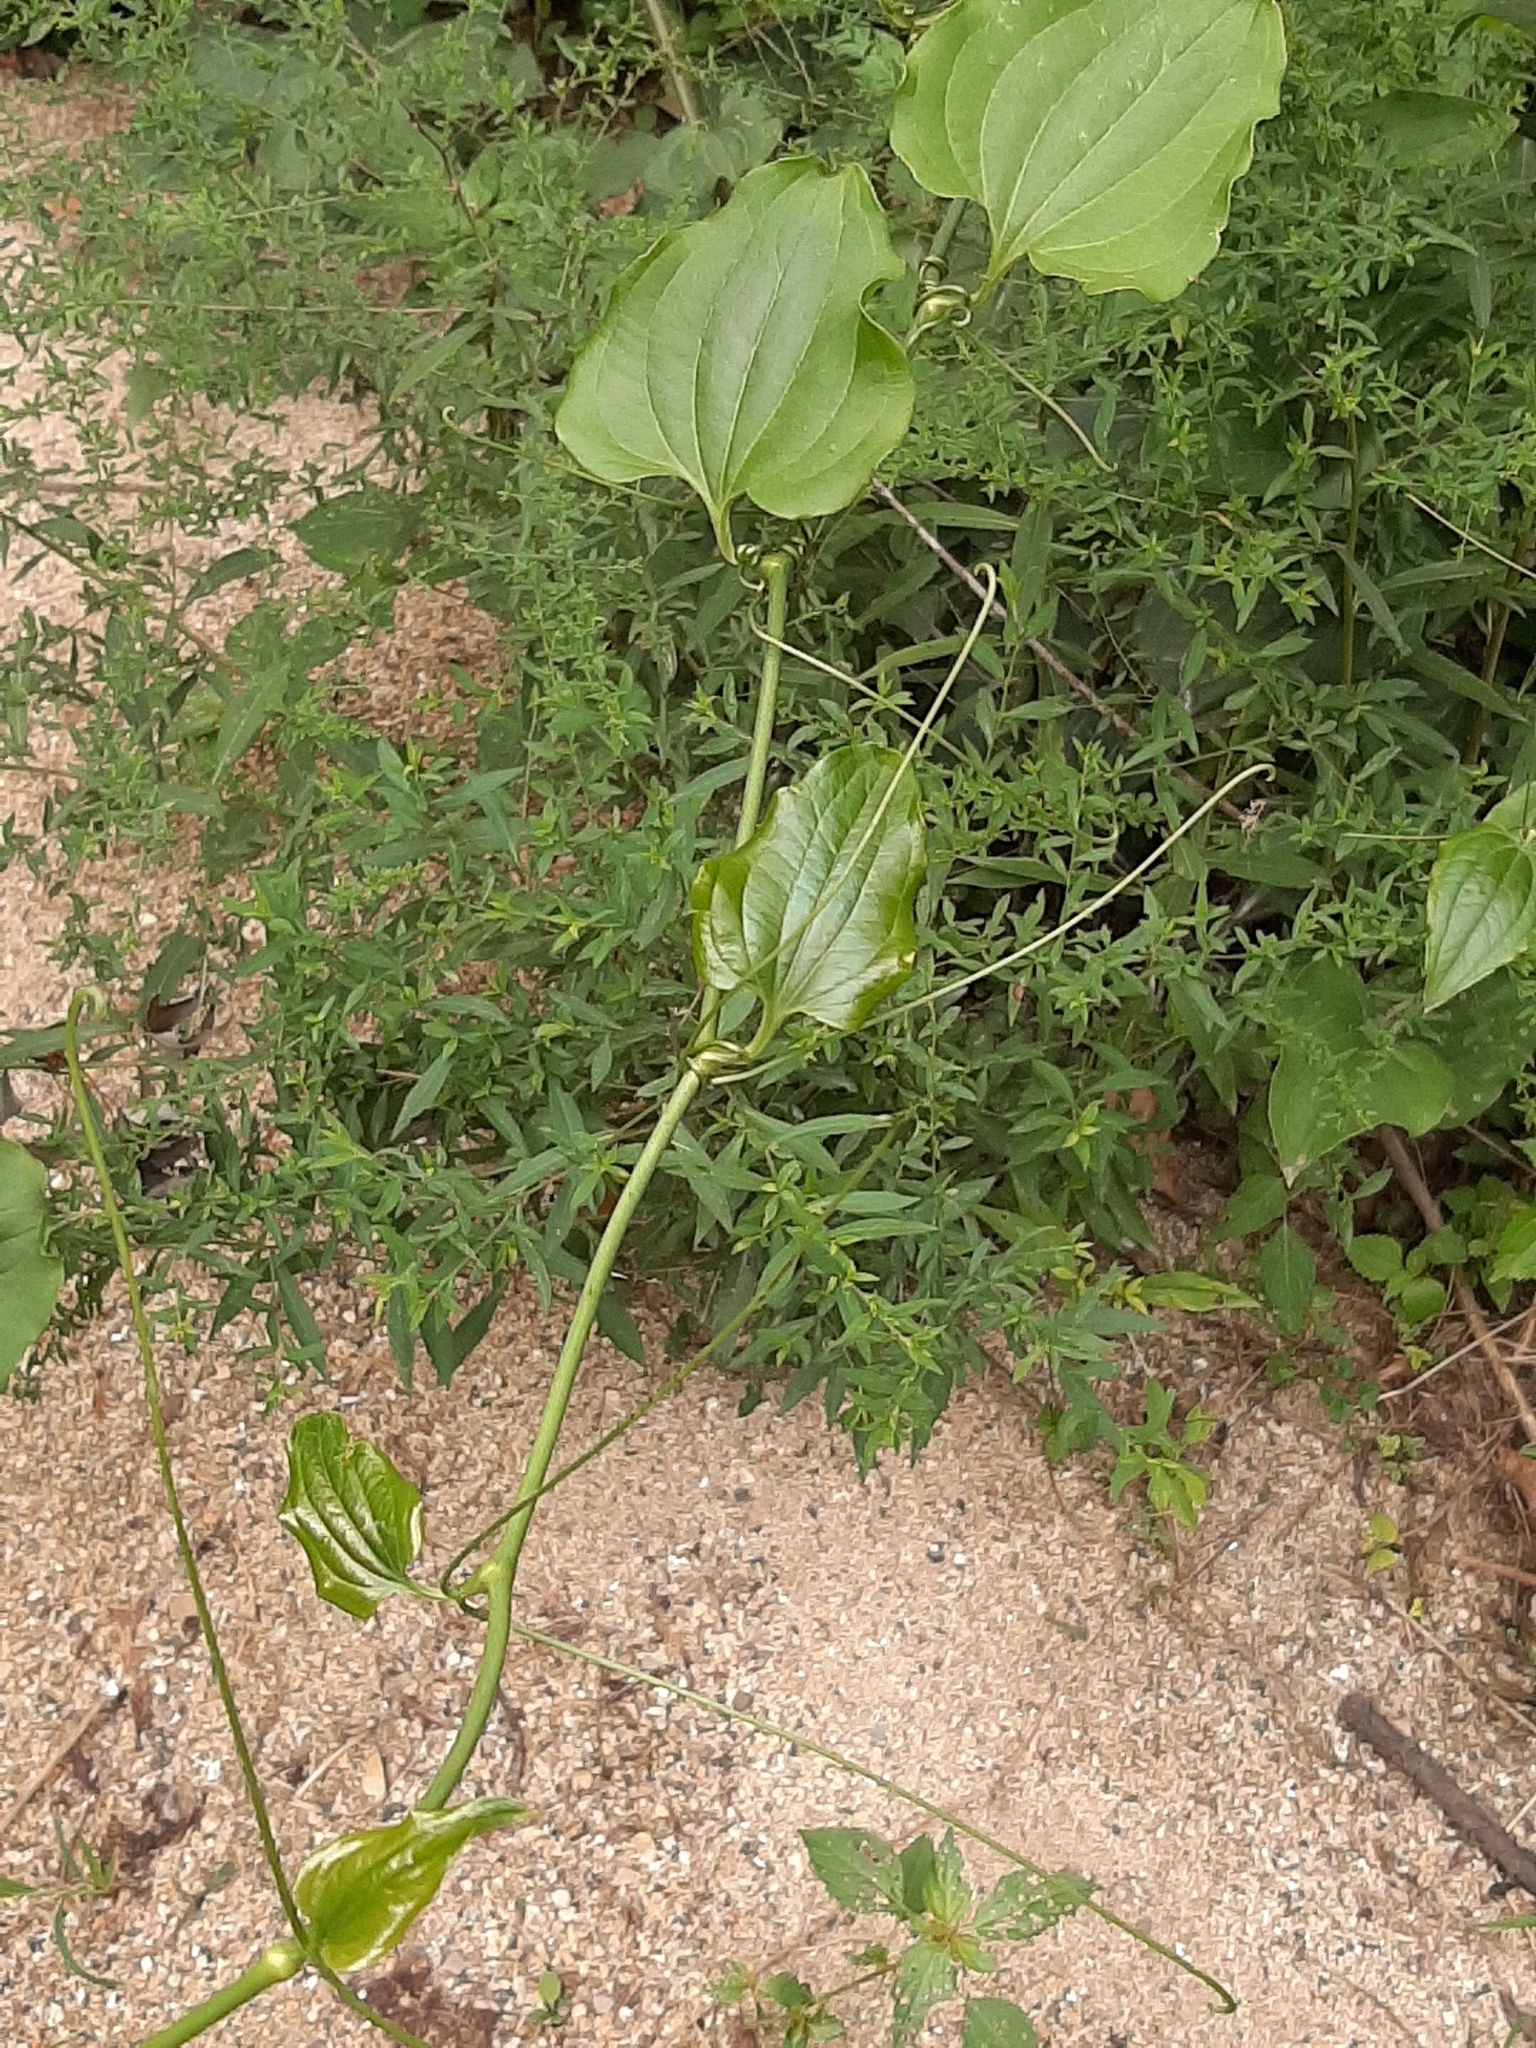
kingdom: Plantae
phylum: Tracheophyta
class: Liliopsida
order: Liliales
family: Smilacaceae
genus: Smilax
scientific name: Smilax tamnoides
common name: Hellfetter
